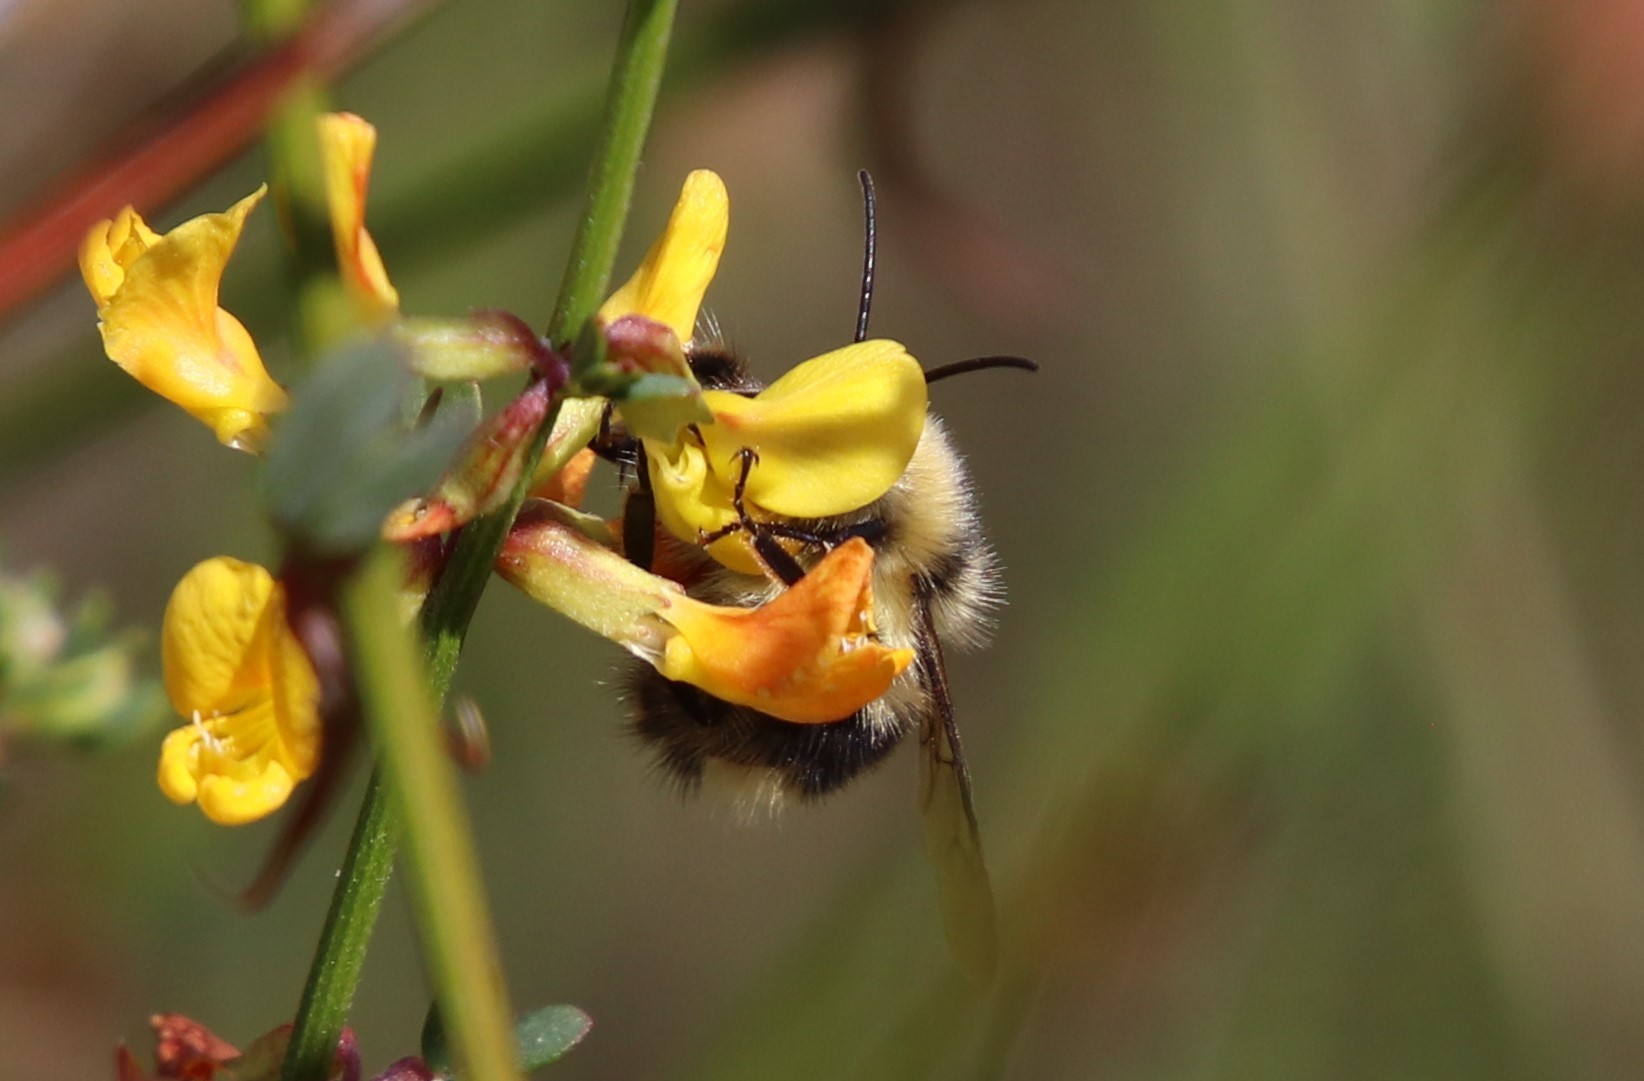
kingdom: Animalia
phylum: Arthropoda
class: Insecta
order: Hymenoptera
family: Apidae
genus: Bombus
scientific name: Bombus melanopygus
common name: Black tail bumble bee
